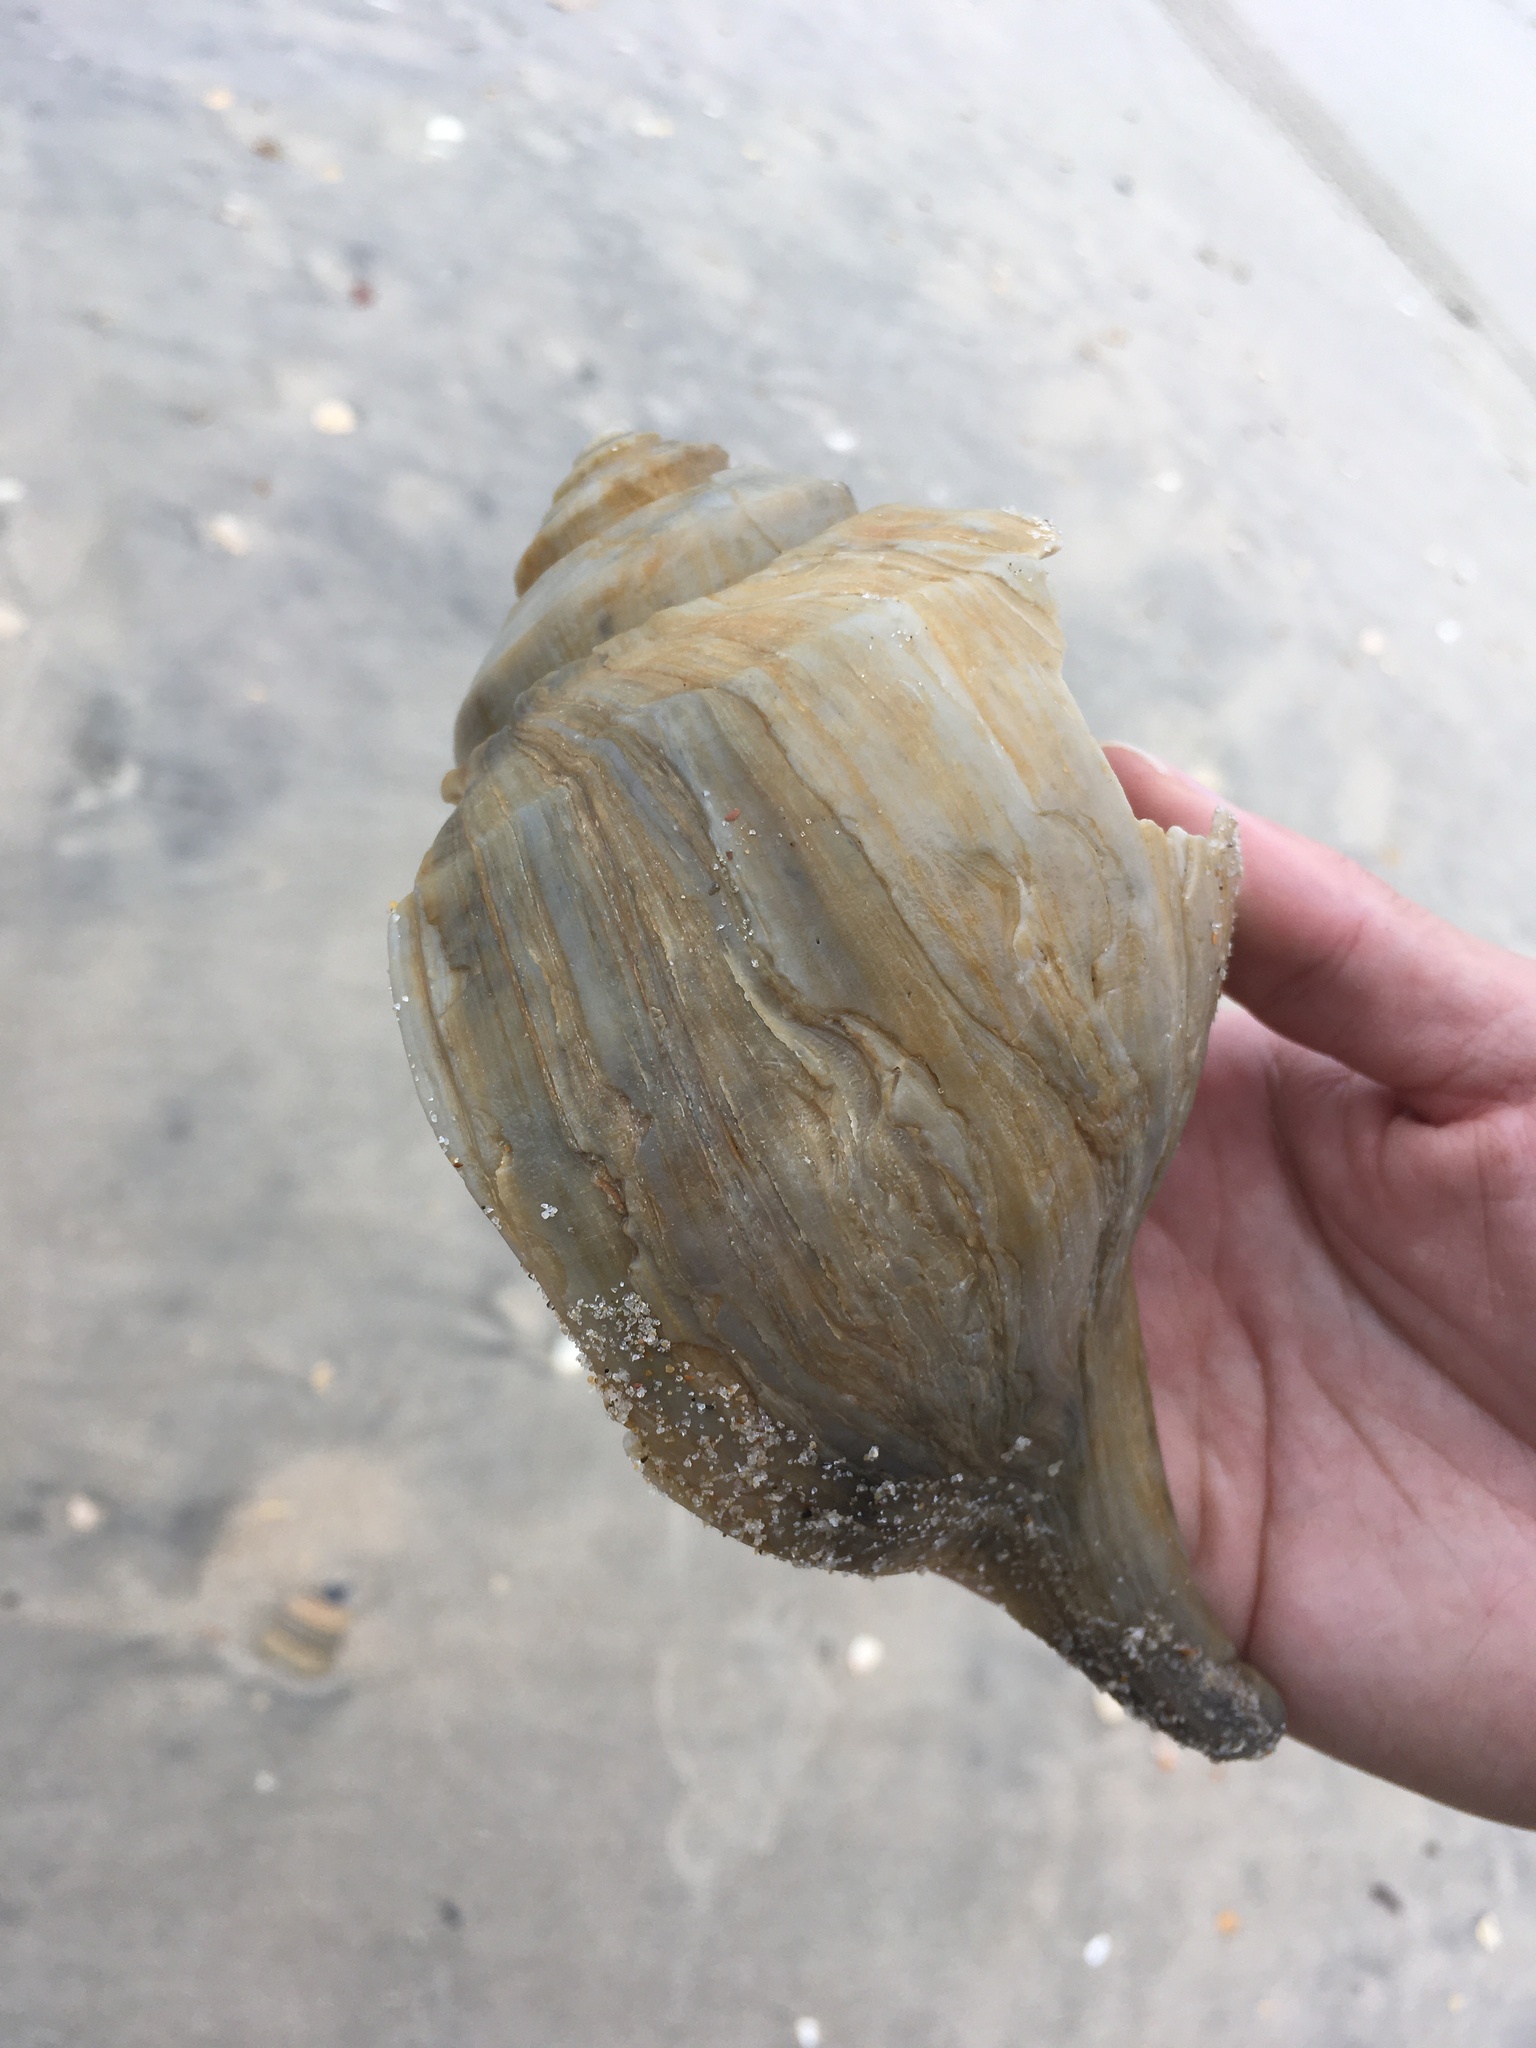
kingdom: Animalia
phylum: Mollusca
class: Gastropoda
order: Neogastropoda
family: Busyconidae
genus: Busycotypus
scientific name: Busycotypus canaliculatus
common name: Channeled whelk
